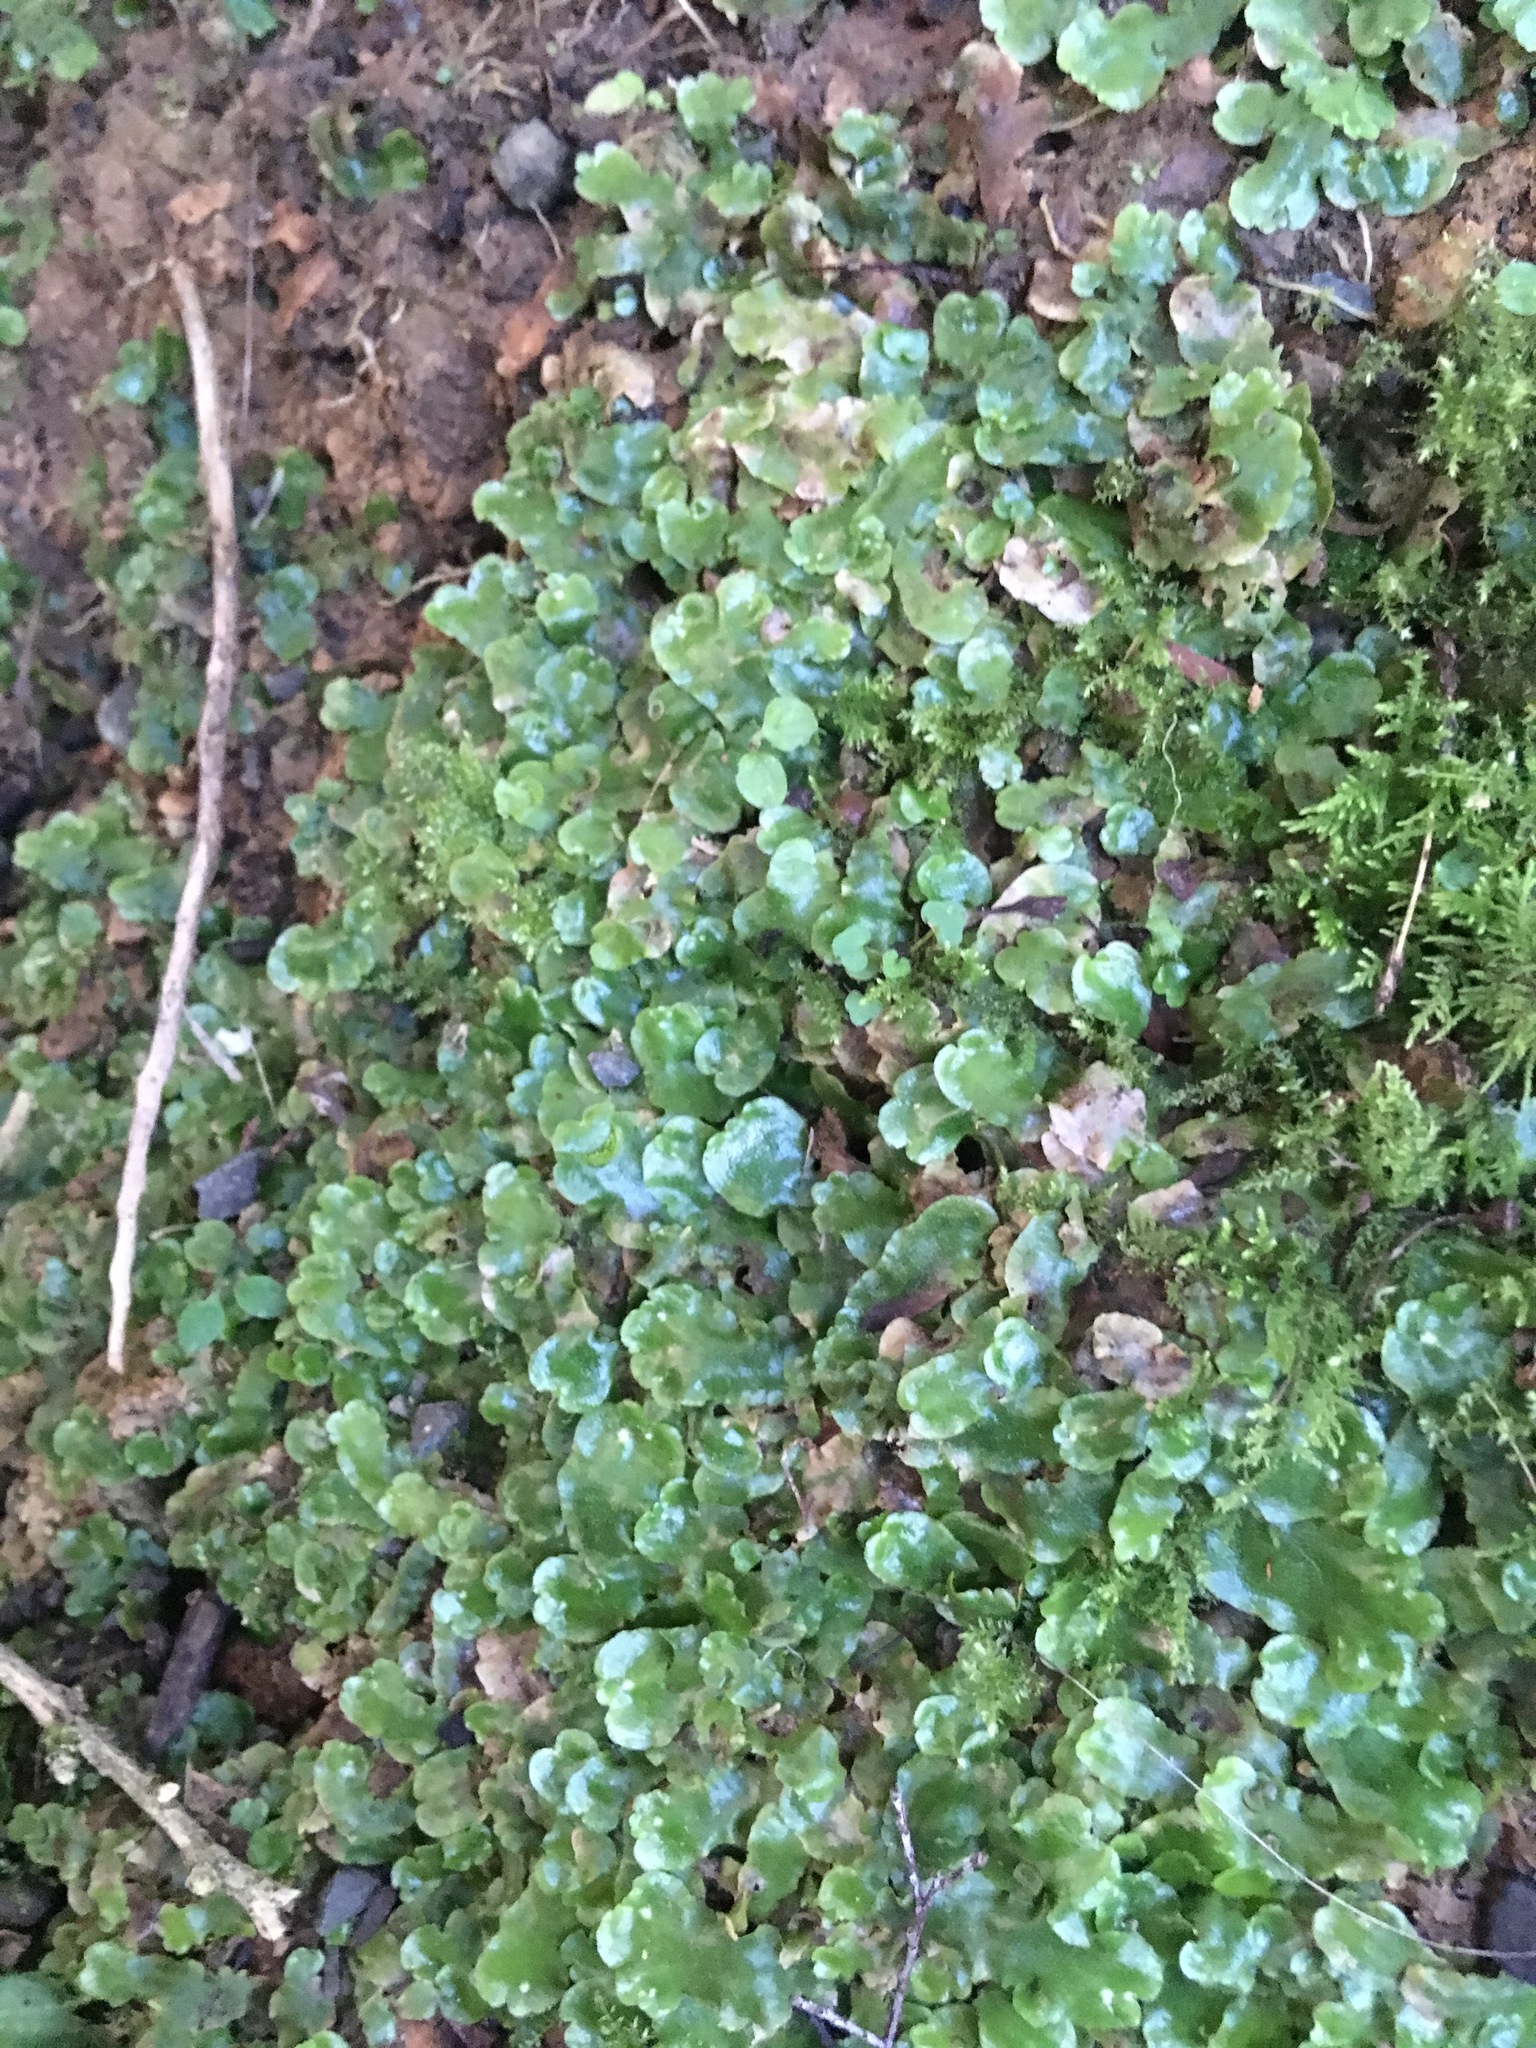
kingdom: Plantae
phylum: Marchantiophyta
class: Marchantiopsida
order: Lunulariales
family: Lunulariaceae
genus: Lunularia
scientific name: Lunularia cruciata
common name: Crescent-cup liverwort
